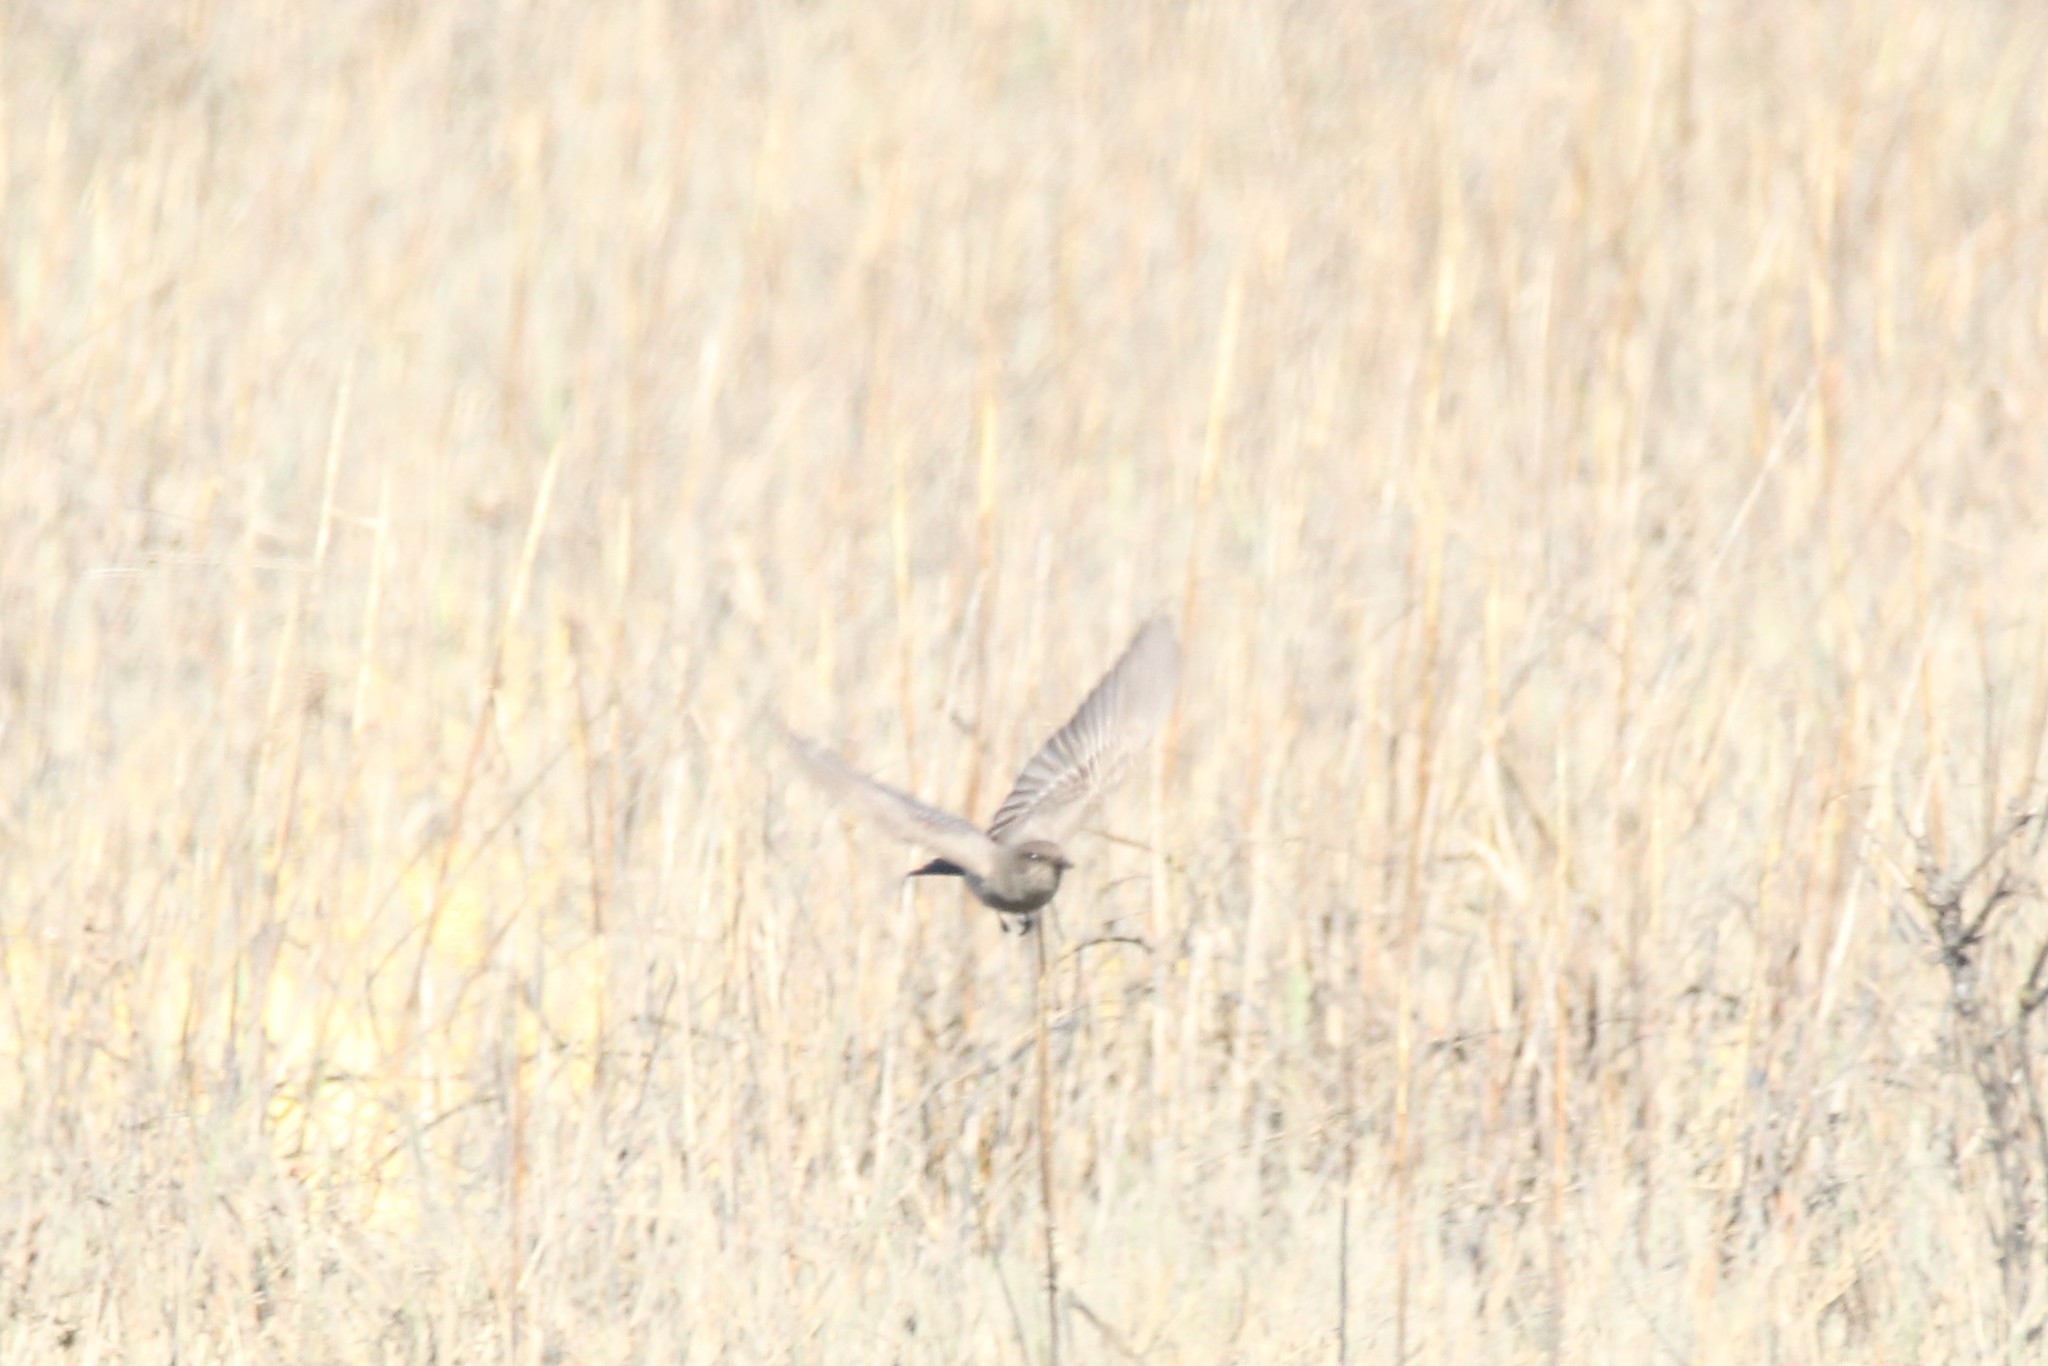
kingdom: Animalia
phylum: Chordata
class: Aves
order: Passeriformes
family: Tyrannidae
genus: Sayornis
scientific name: Sayornis saya
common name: Say's phoebe
